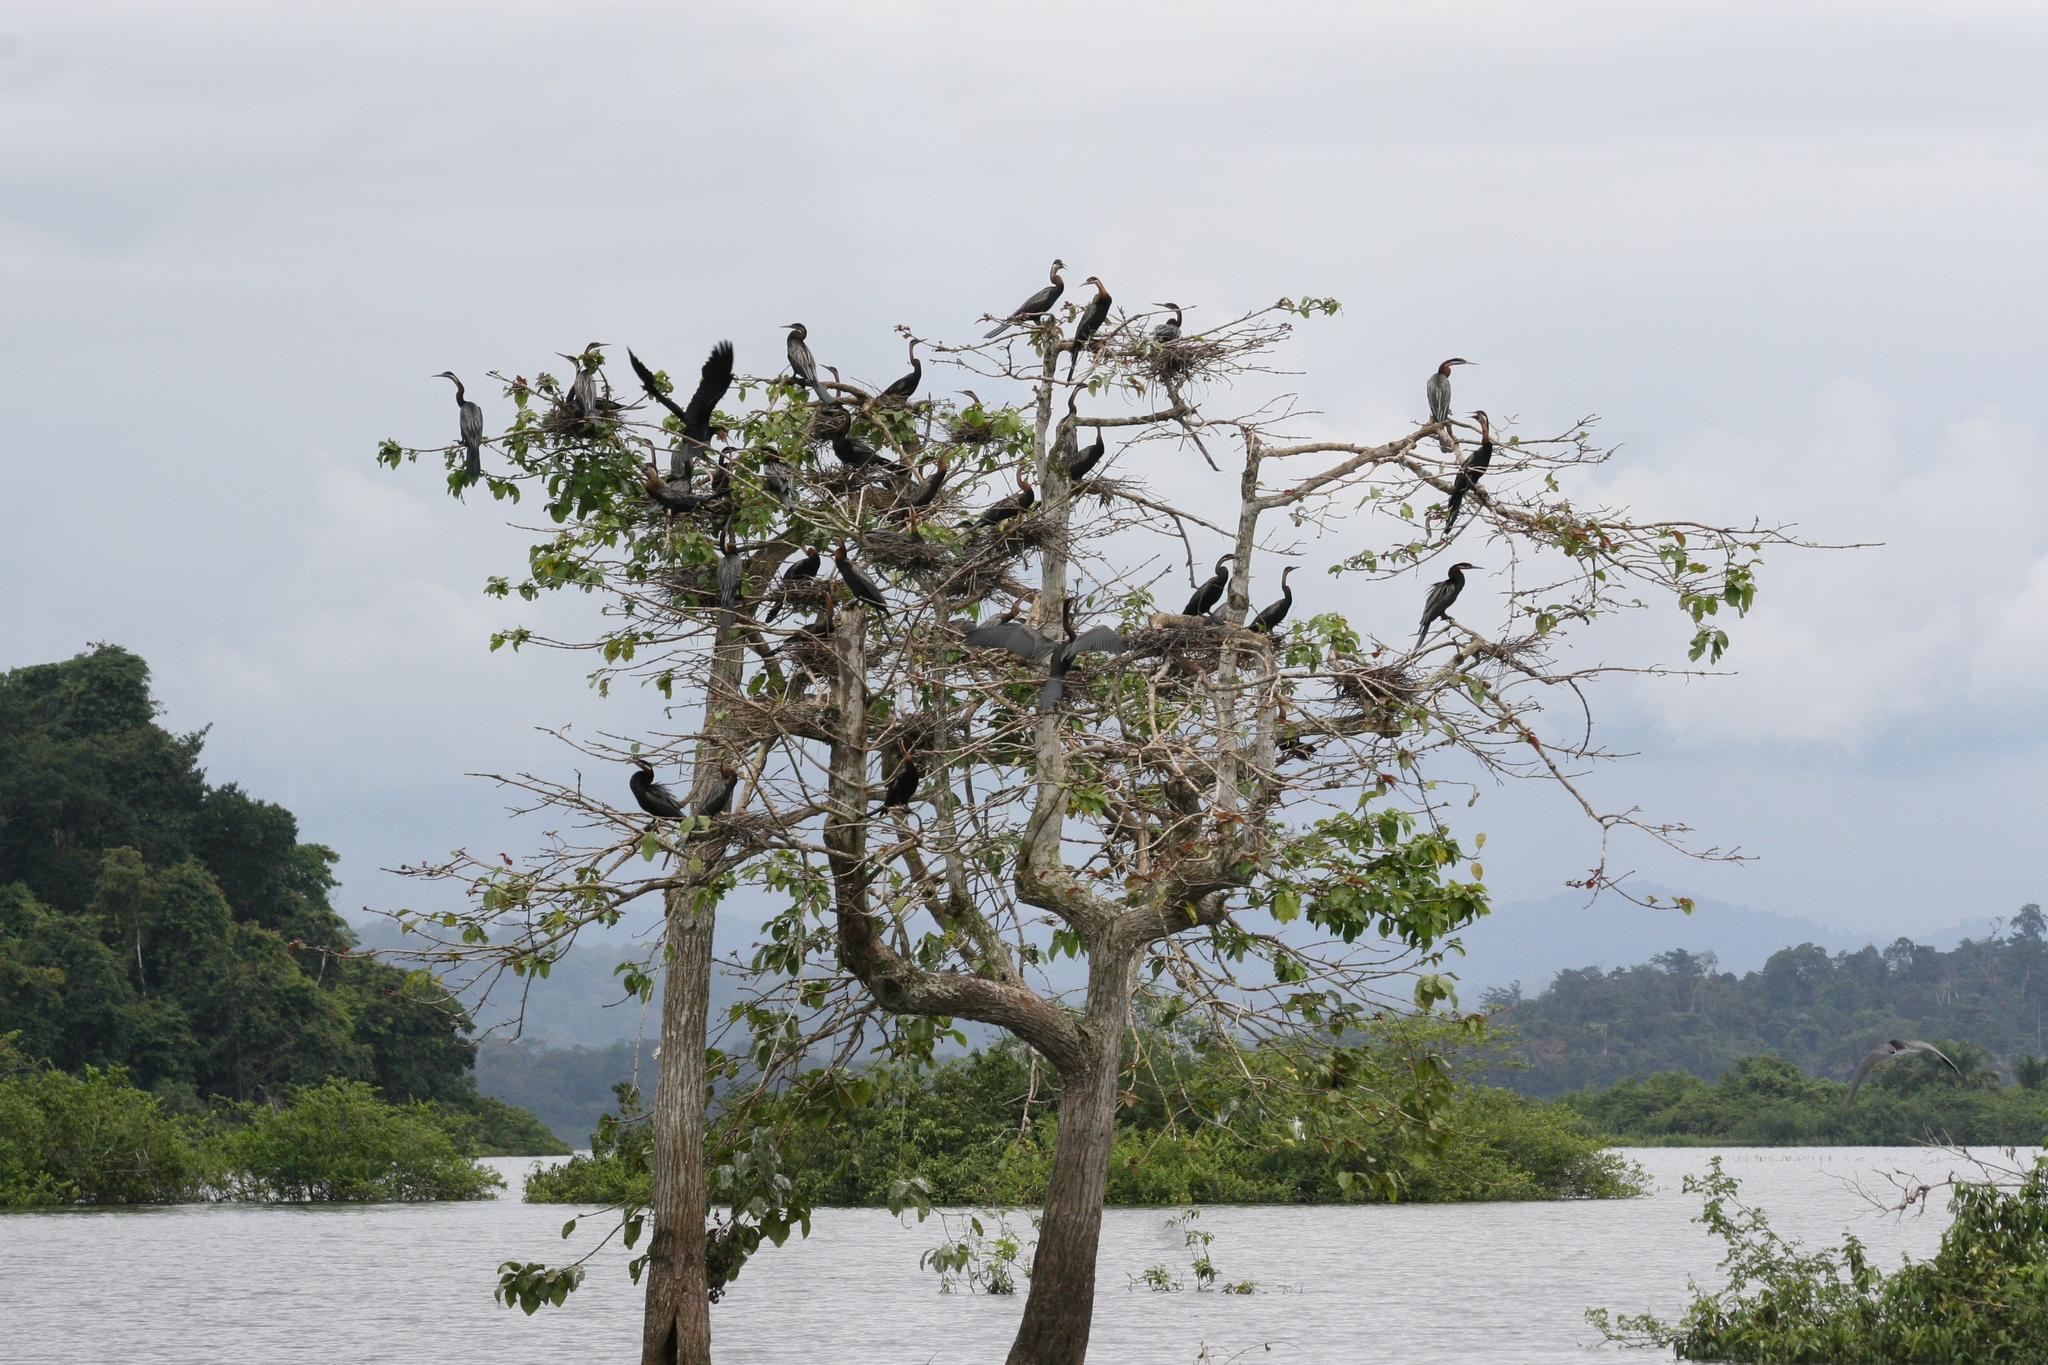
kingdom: Animalia
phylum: Chordata
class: Aves
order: Suliformes
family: Anhingidae
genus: Anhinga
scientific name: Anhinga rufa
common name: African darter
